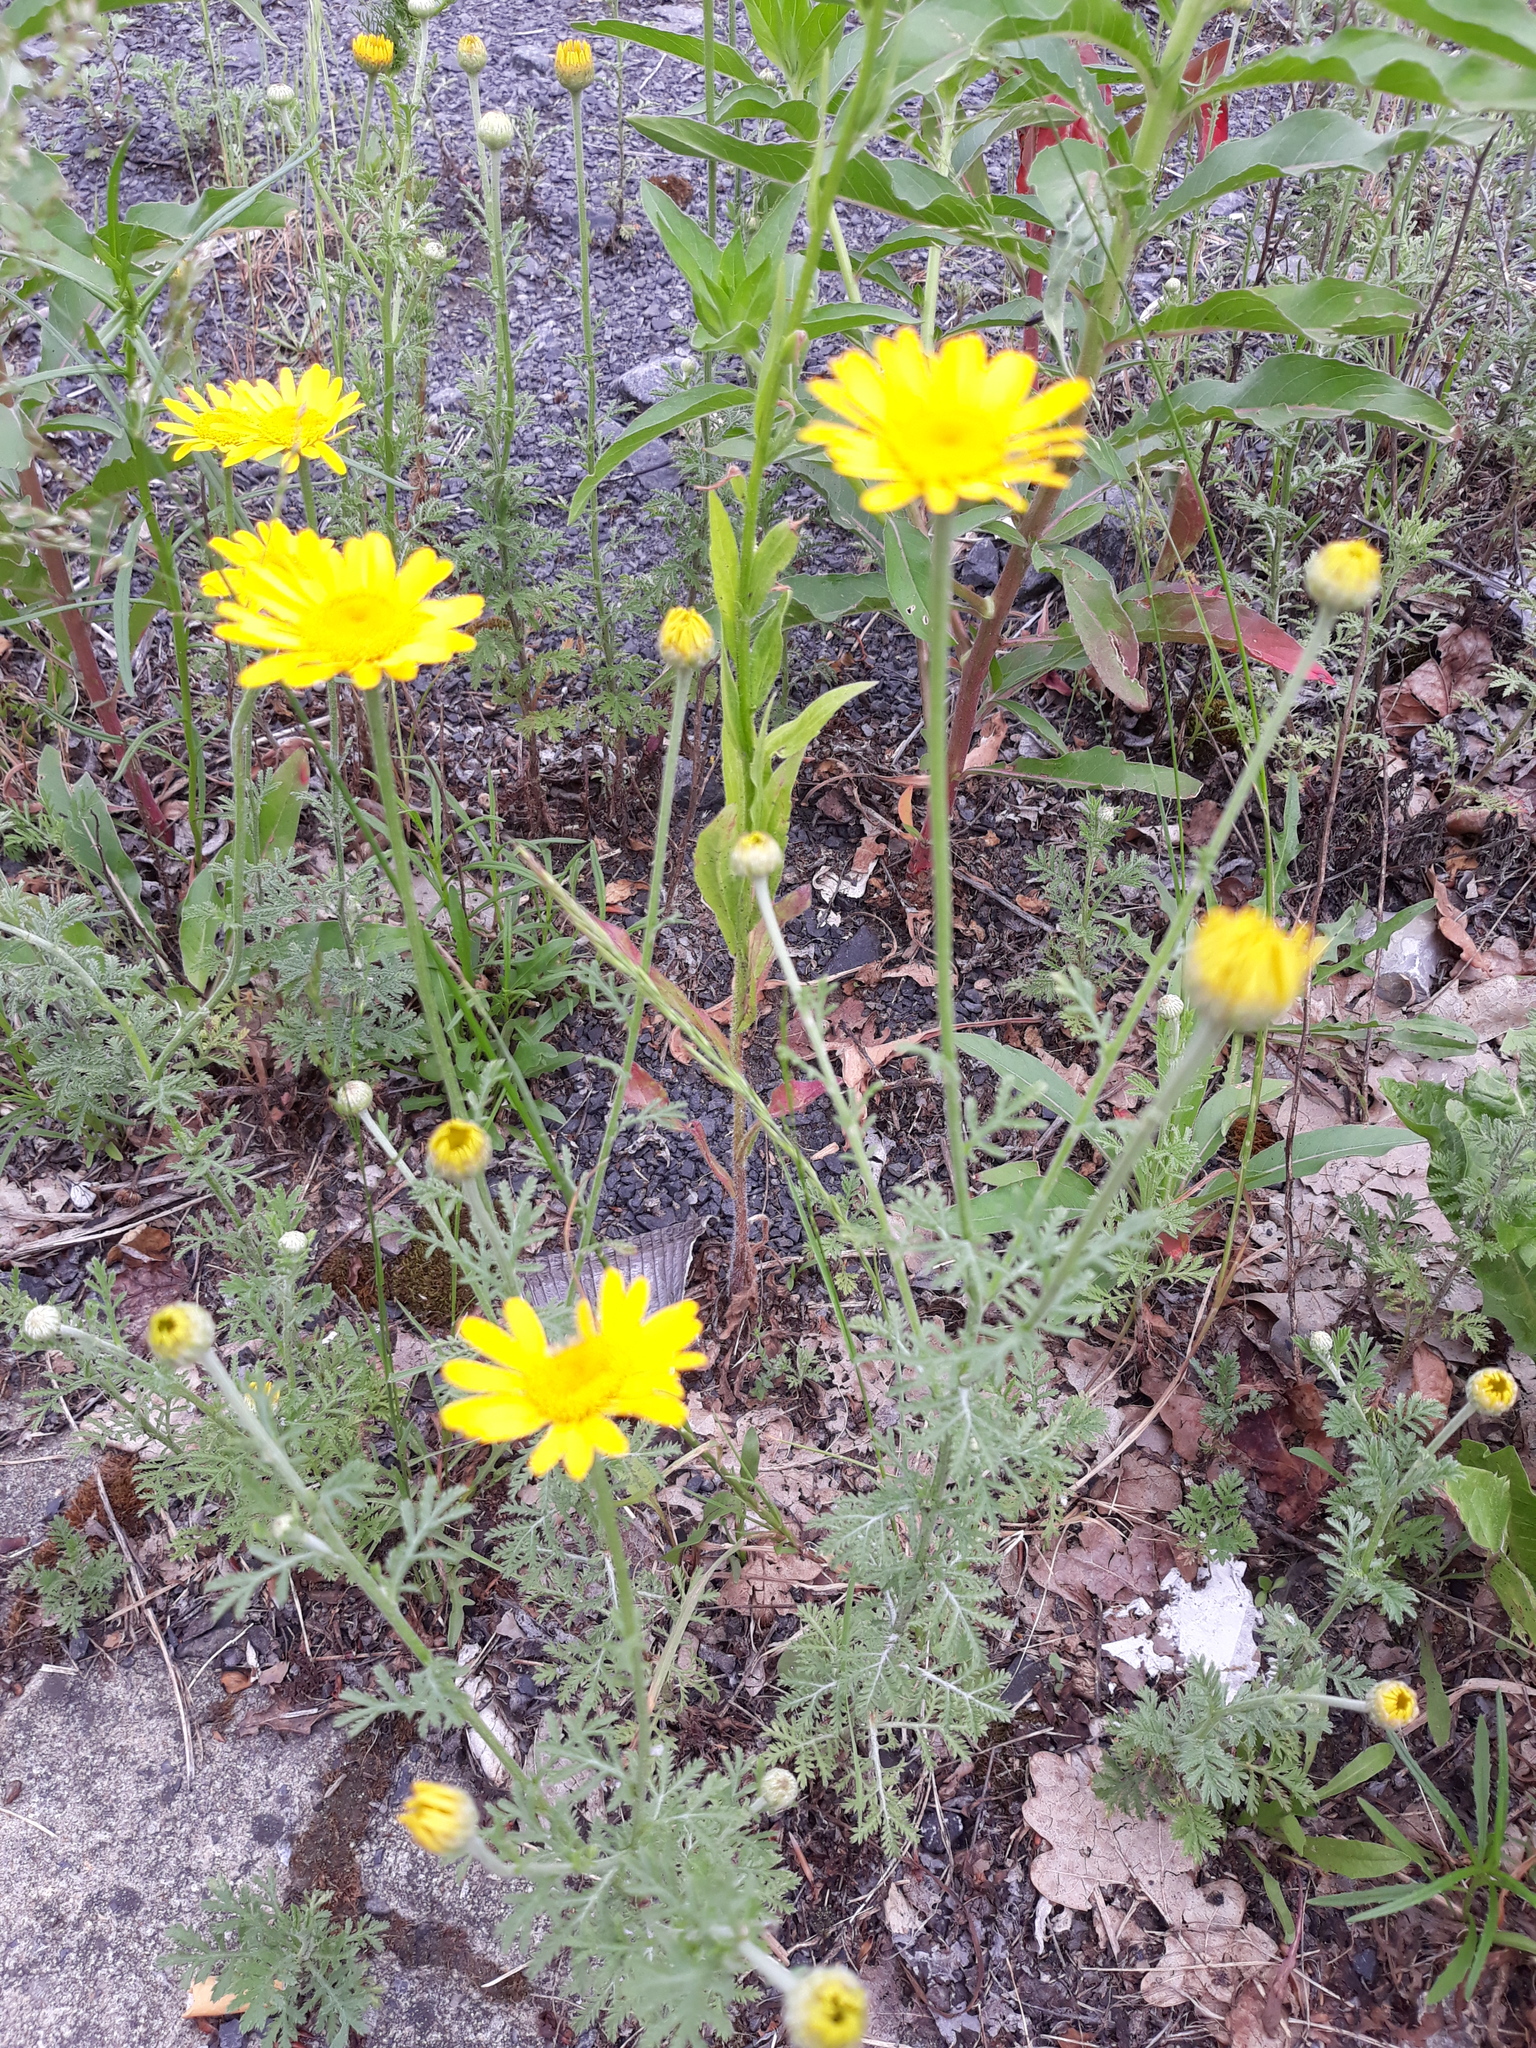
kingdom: Plantae
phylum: Tracheophyta
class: Magnoliopsida
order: Asterales
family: Asteraceae
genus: Cota
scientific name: Cota tinctoria
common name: Golden chamomile
